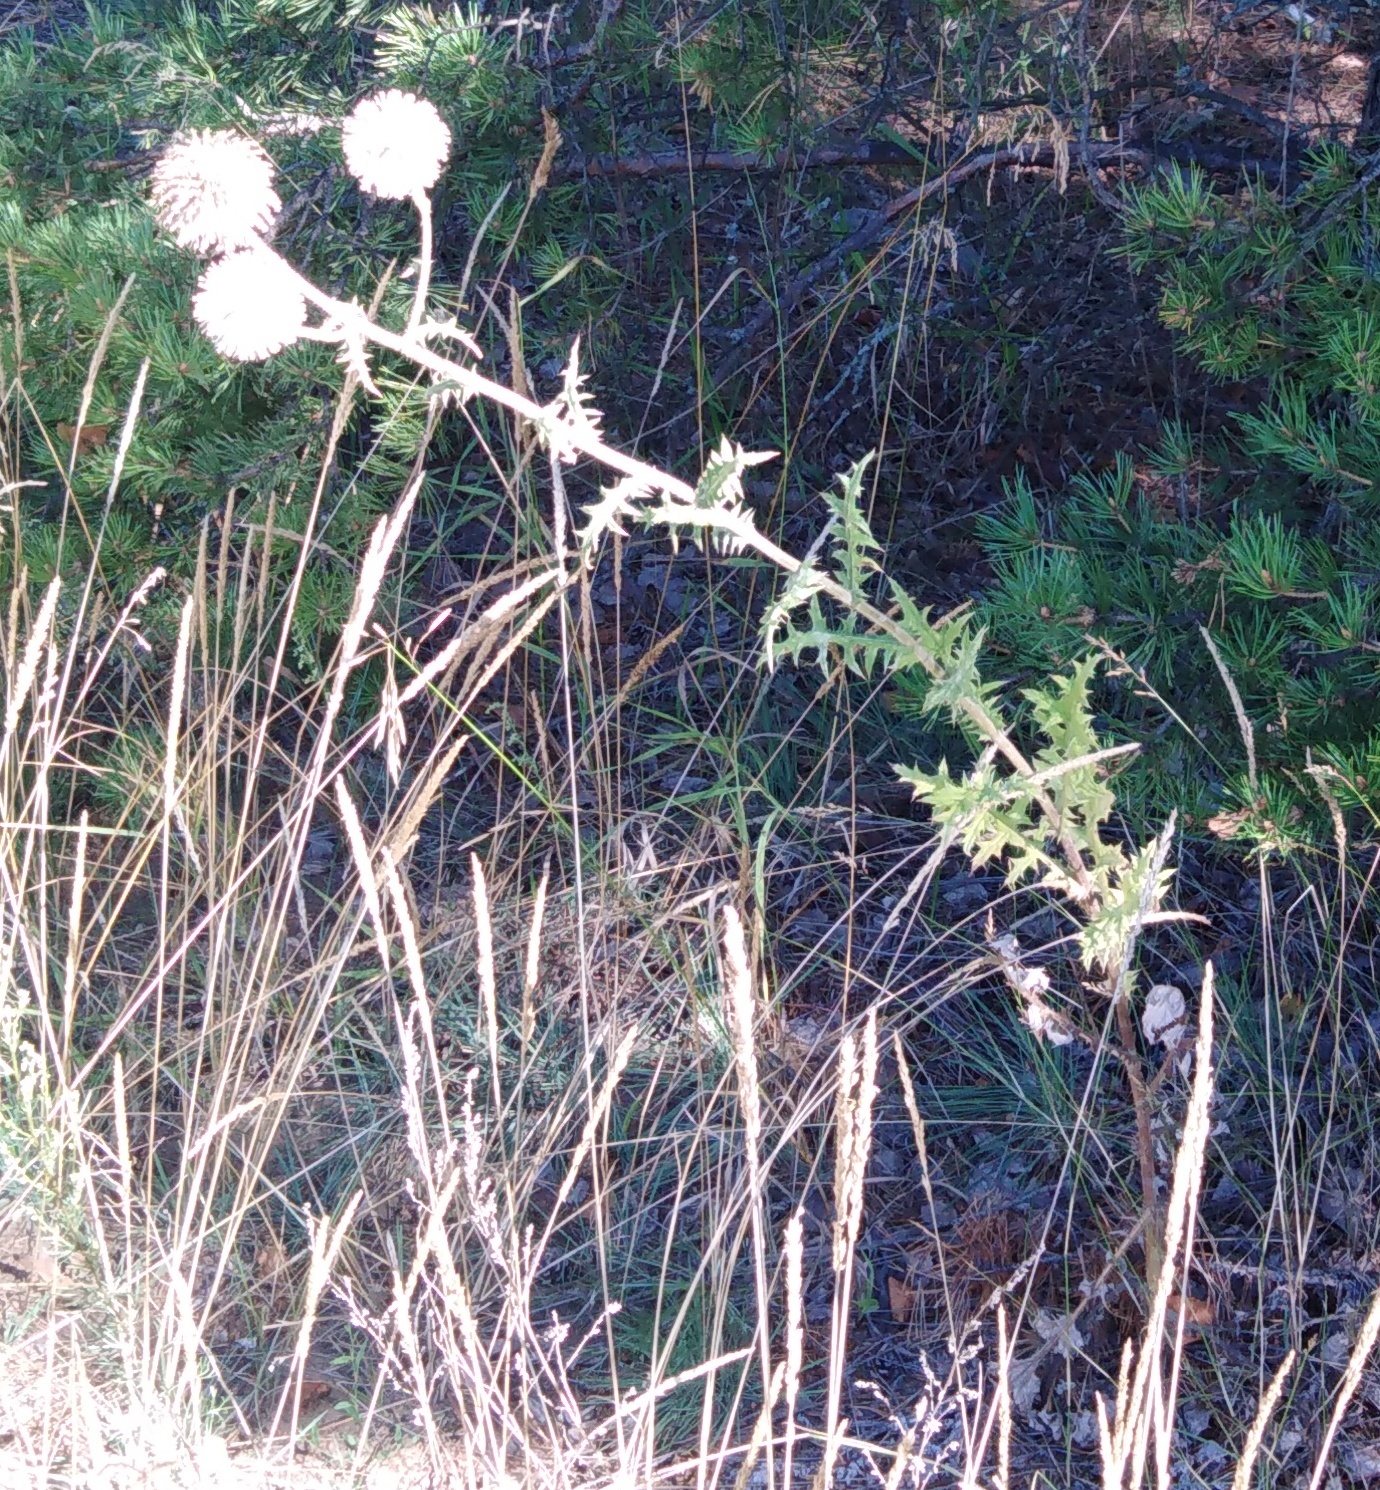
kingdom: Plantae
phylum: Tracheophyta
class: Magnoliopsida
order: Asterales
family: Asteraceae
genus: Echinops
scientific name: Echinops sphaerocephalus
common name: Glandular globe-thistle
